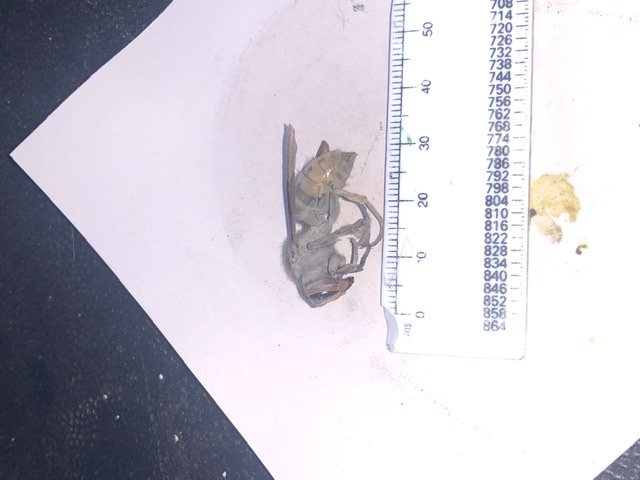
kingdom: Animalia
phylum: Arthropoda
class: Insecta
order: Hymenoptera
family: Vespidae
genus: Vespa
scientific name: Vespa crabro
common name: Hornet
